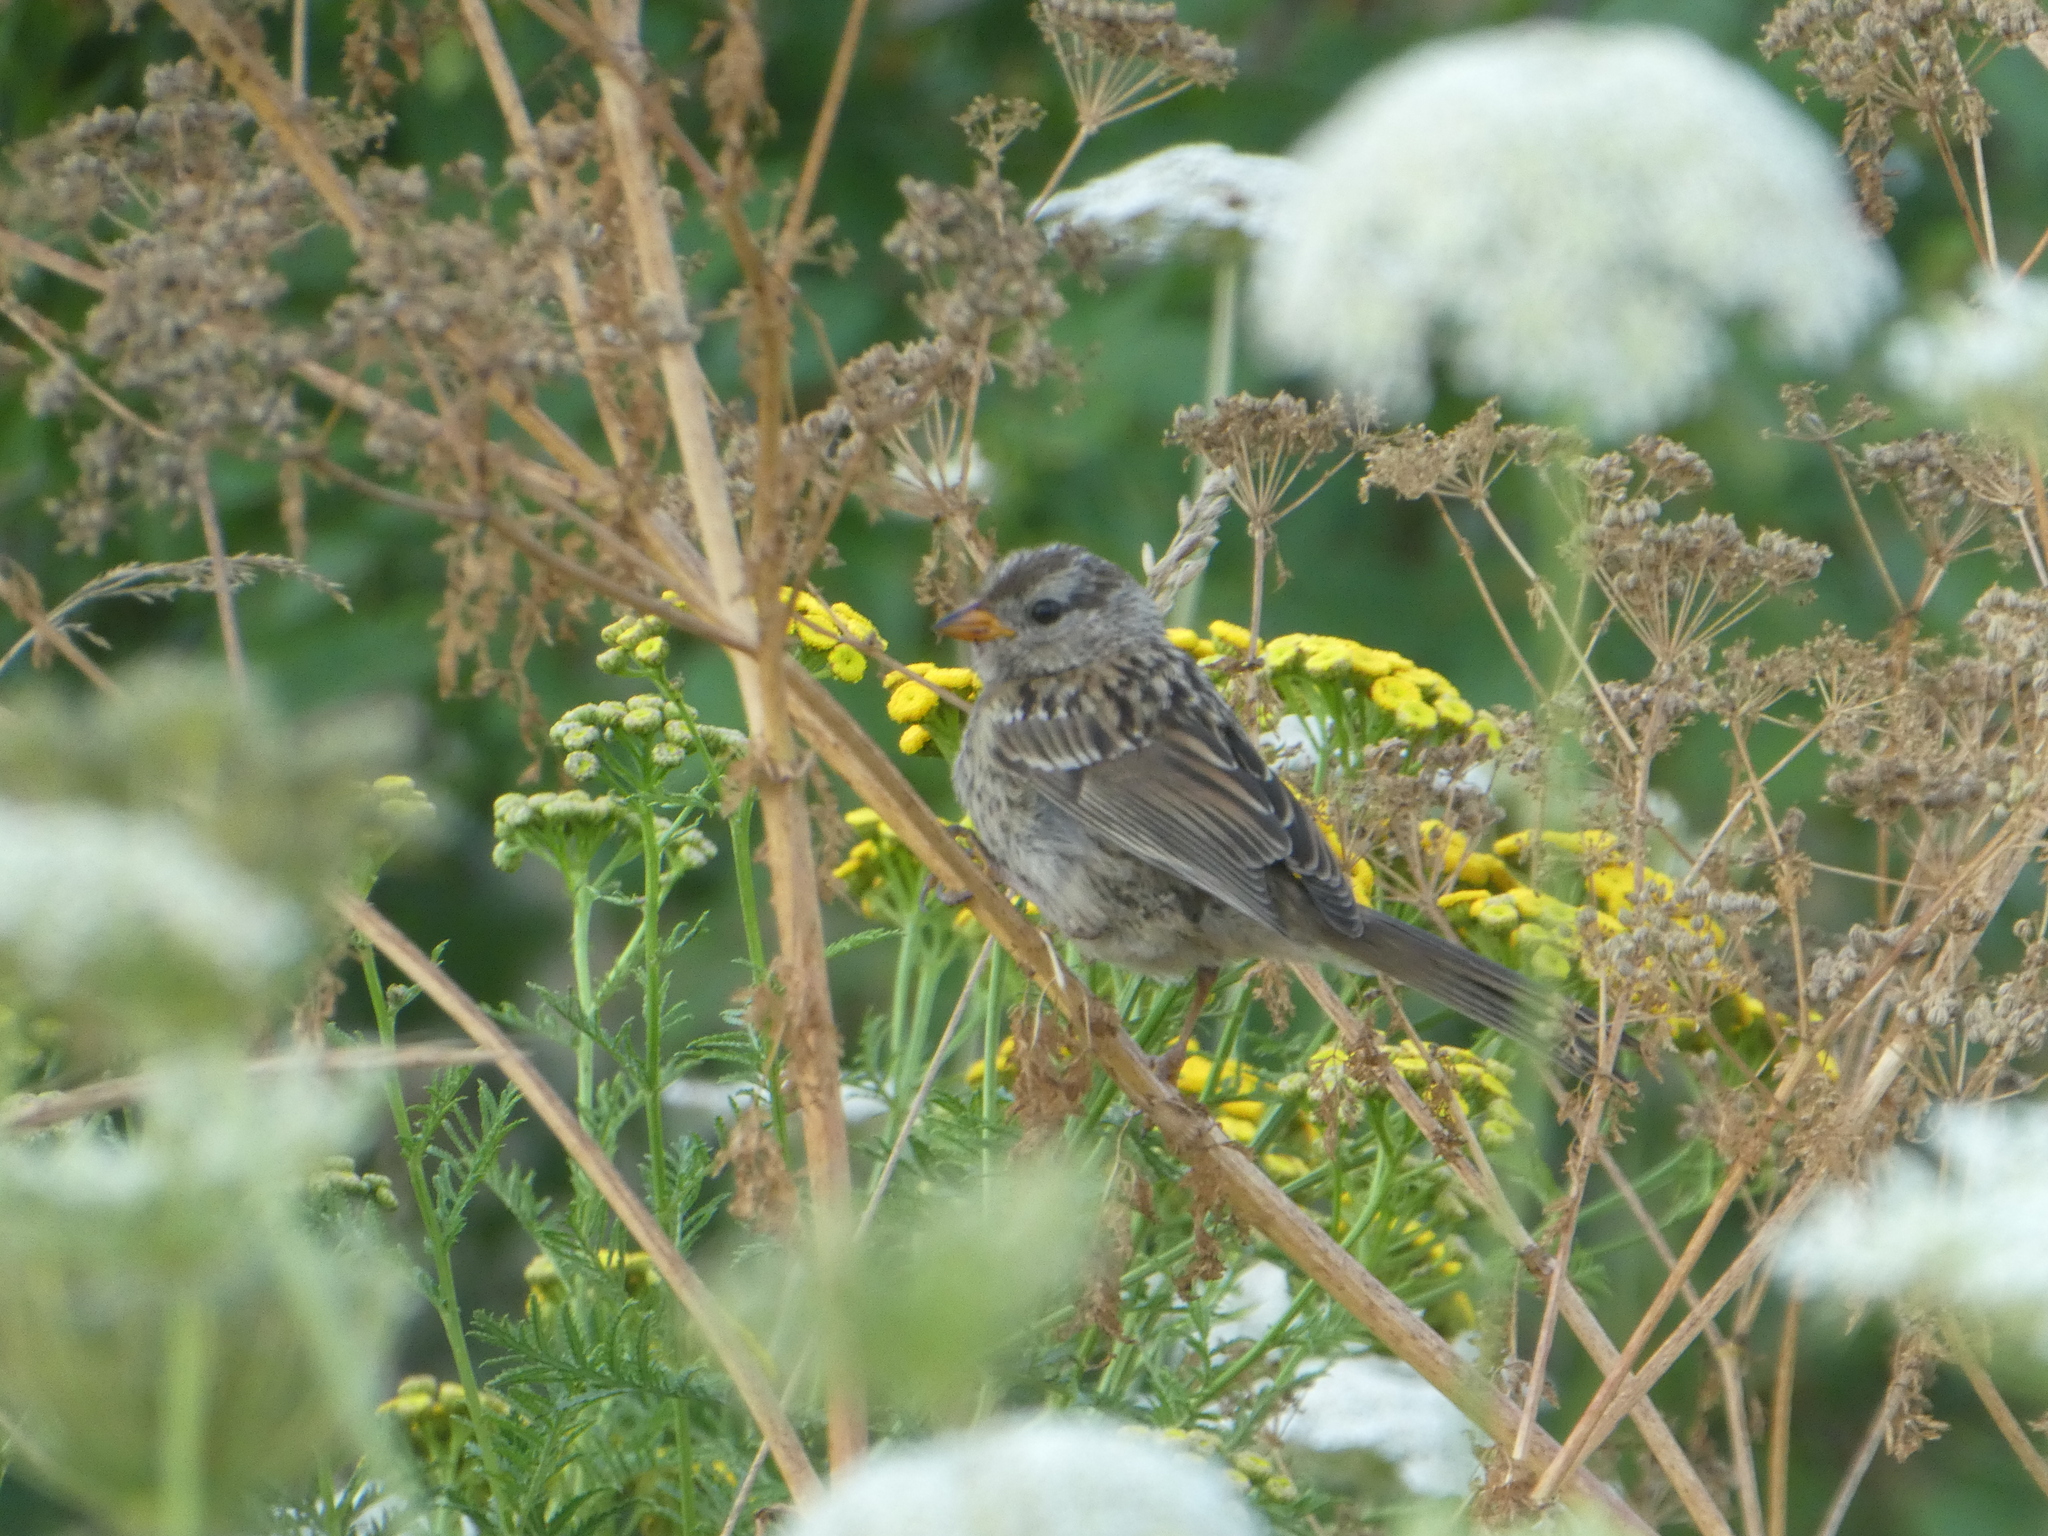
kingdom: Animalia
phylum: Chordata
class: Aves
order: Passeriformes
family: Passerellidae
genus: Zonotrichia
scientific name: Zonotrichia leucophrys
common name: White-crowned sparrow
